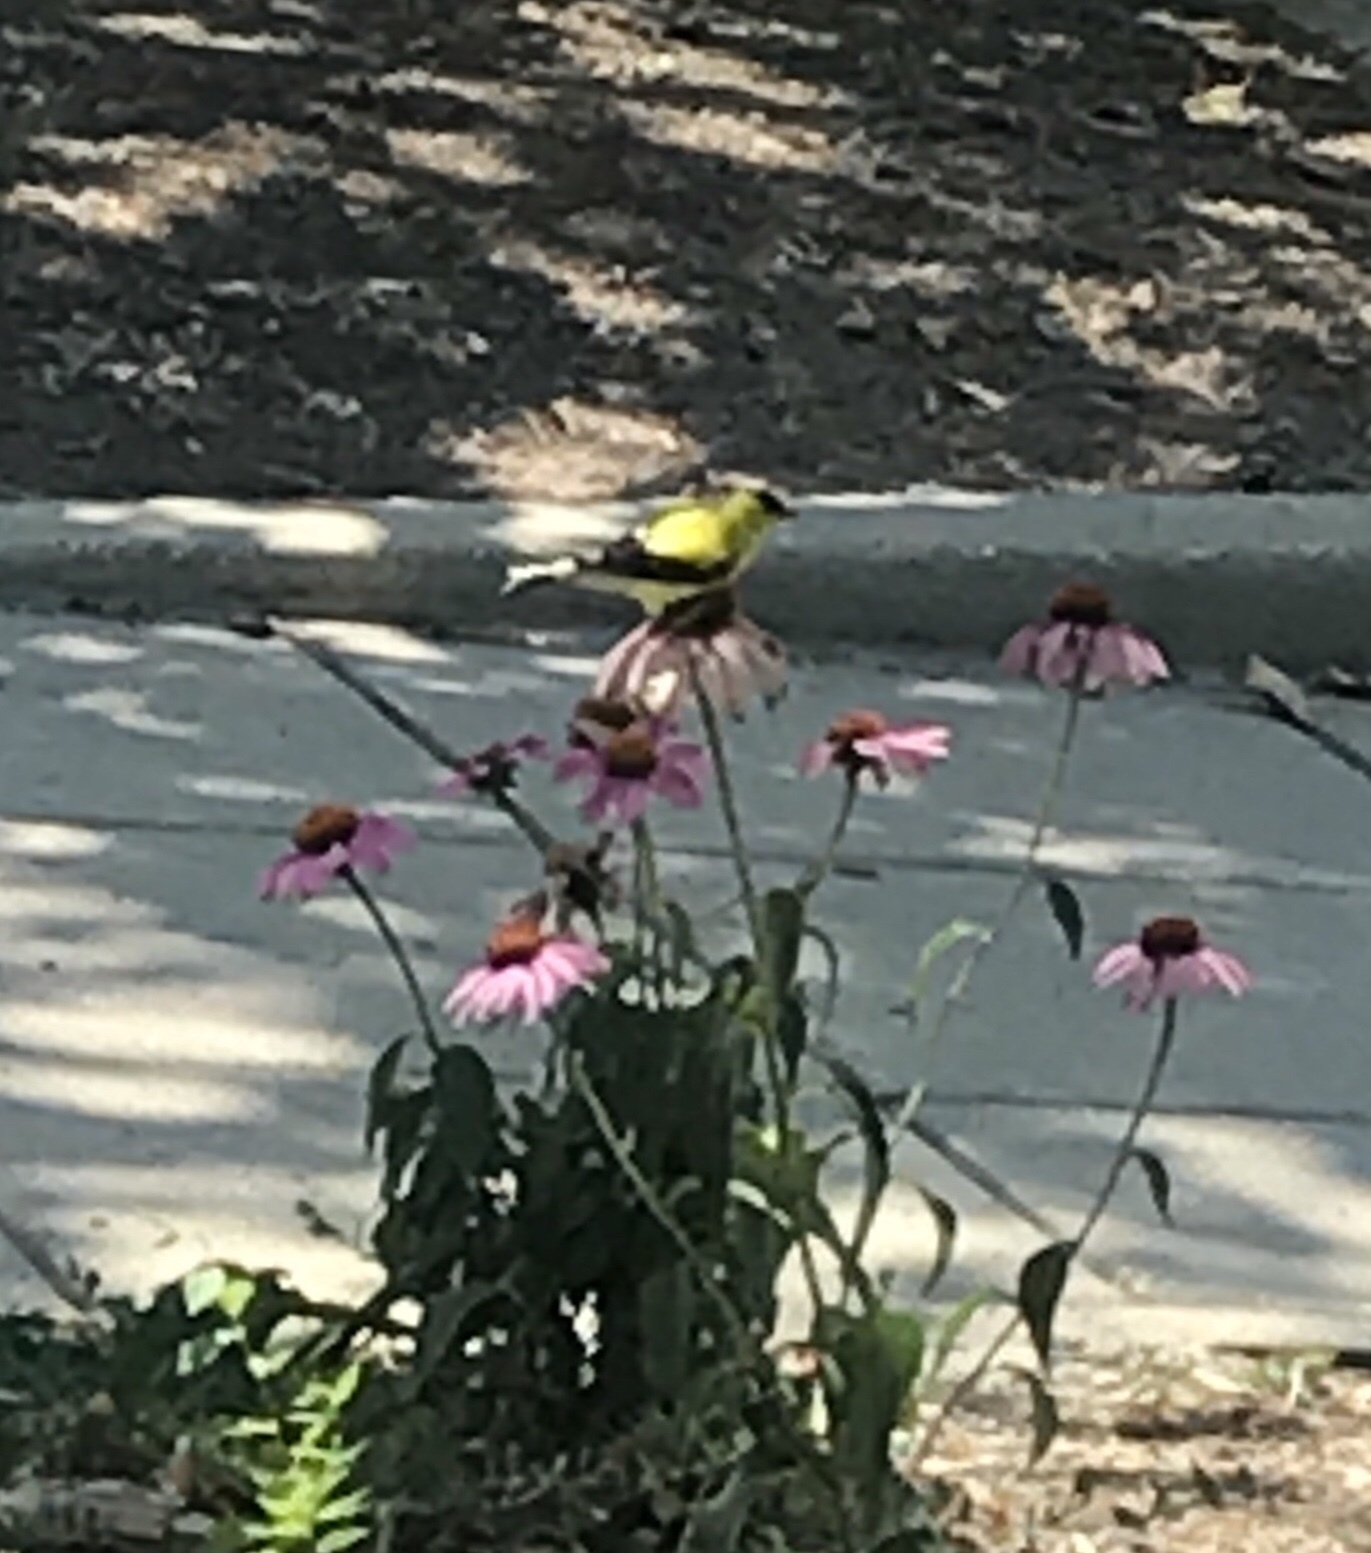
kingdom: Animalia
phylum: Chordata
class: Aves
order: Passeriformes
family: Fringillidae
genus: Spinus
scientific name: Spinus tristis
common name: American goldfinch
